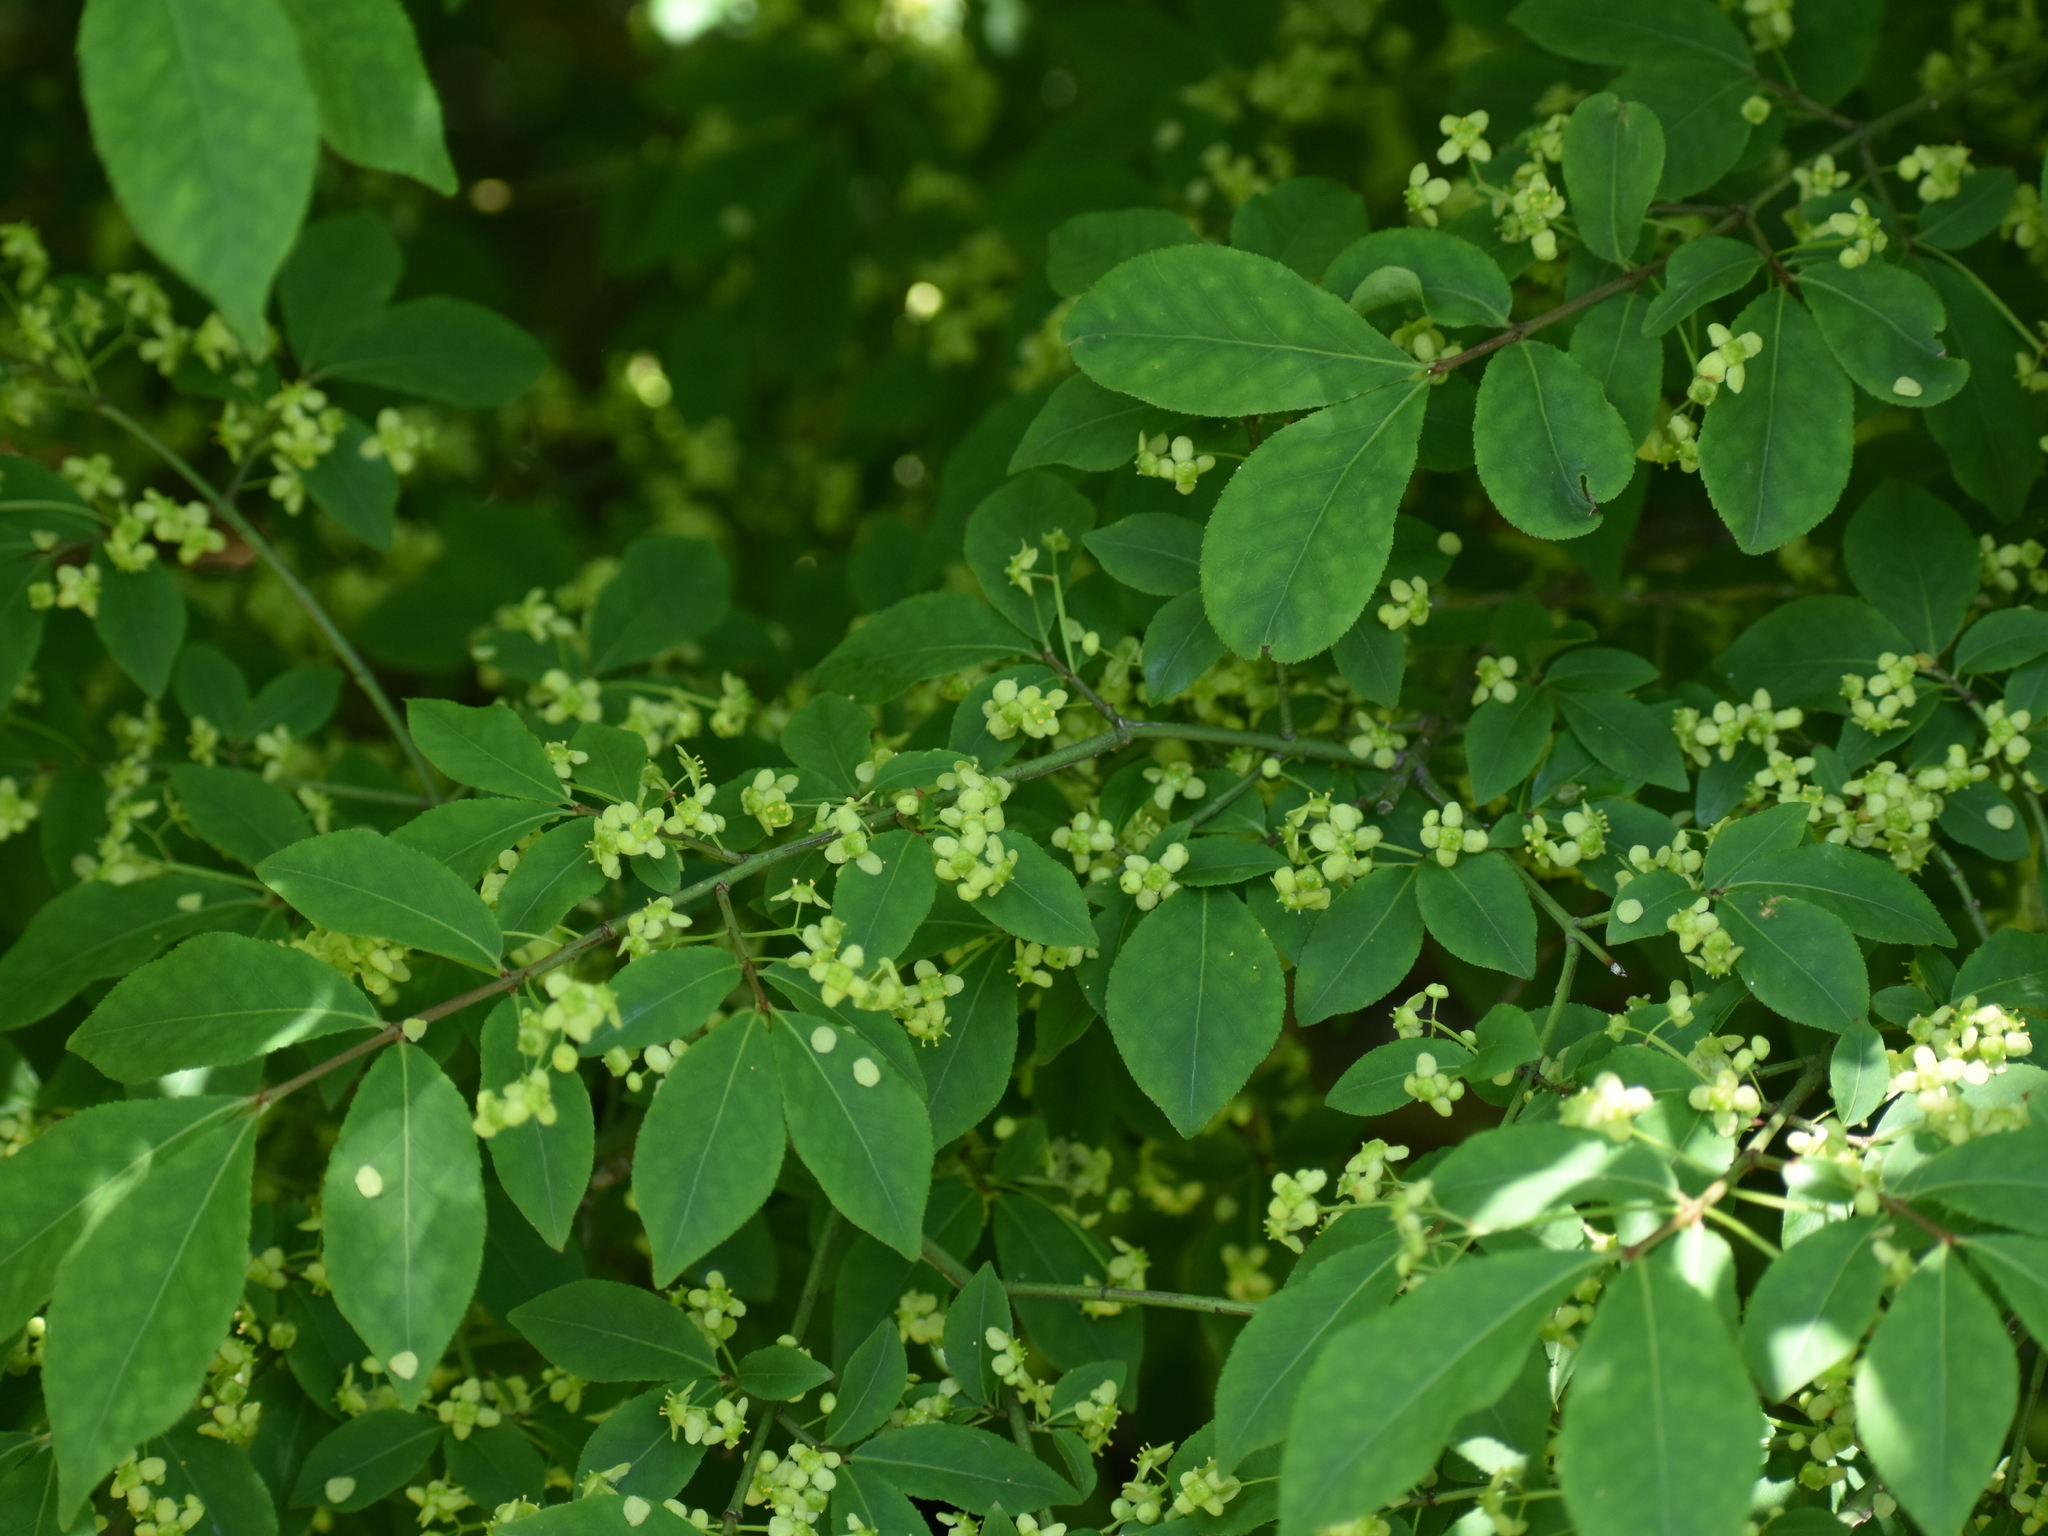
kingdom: Plantae
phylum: Tracheophyta
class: Magnoliopsida
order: Celastrales
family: Celastraceae
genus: Euonymus
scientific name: Euonymus alatus
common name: Winged euonymus
